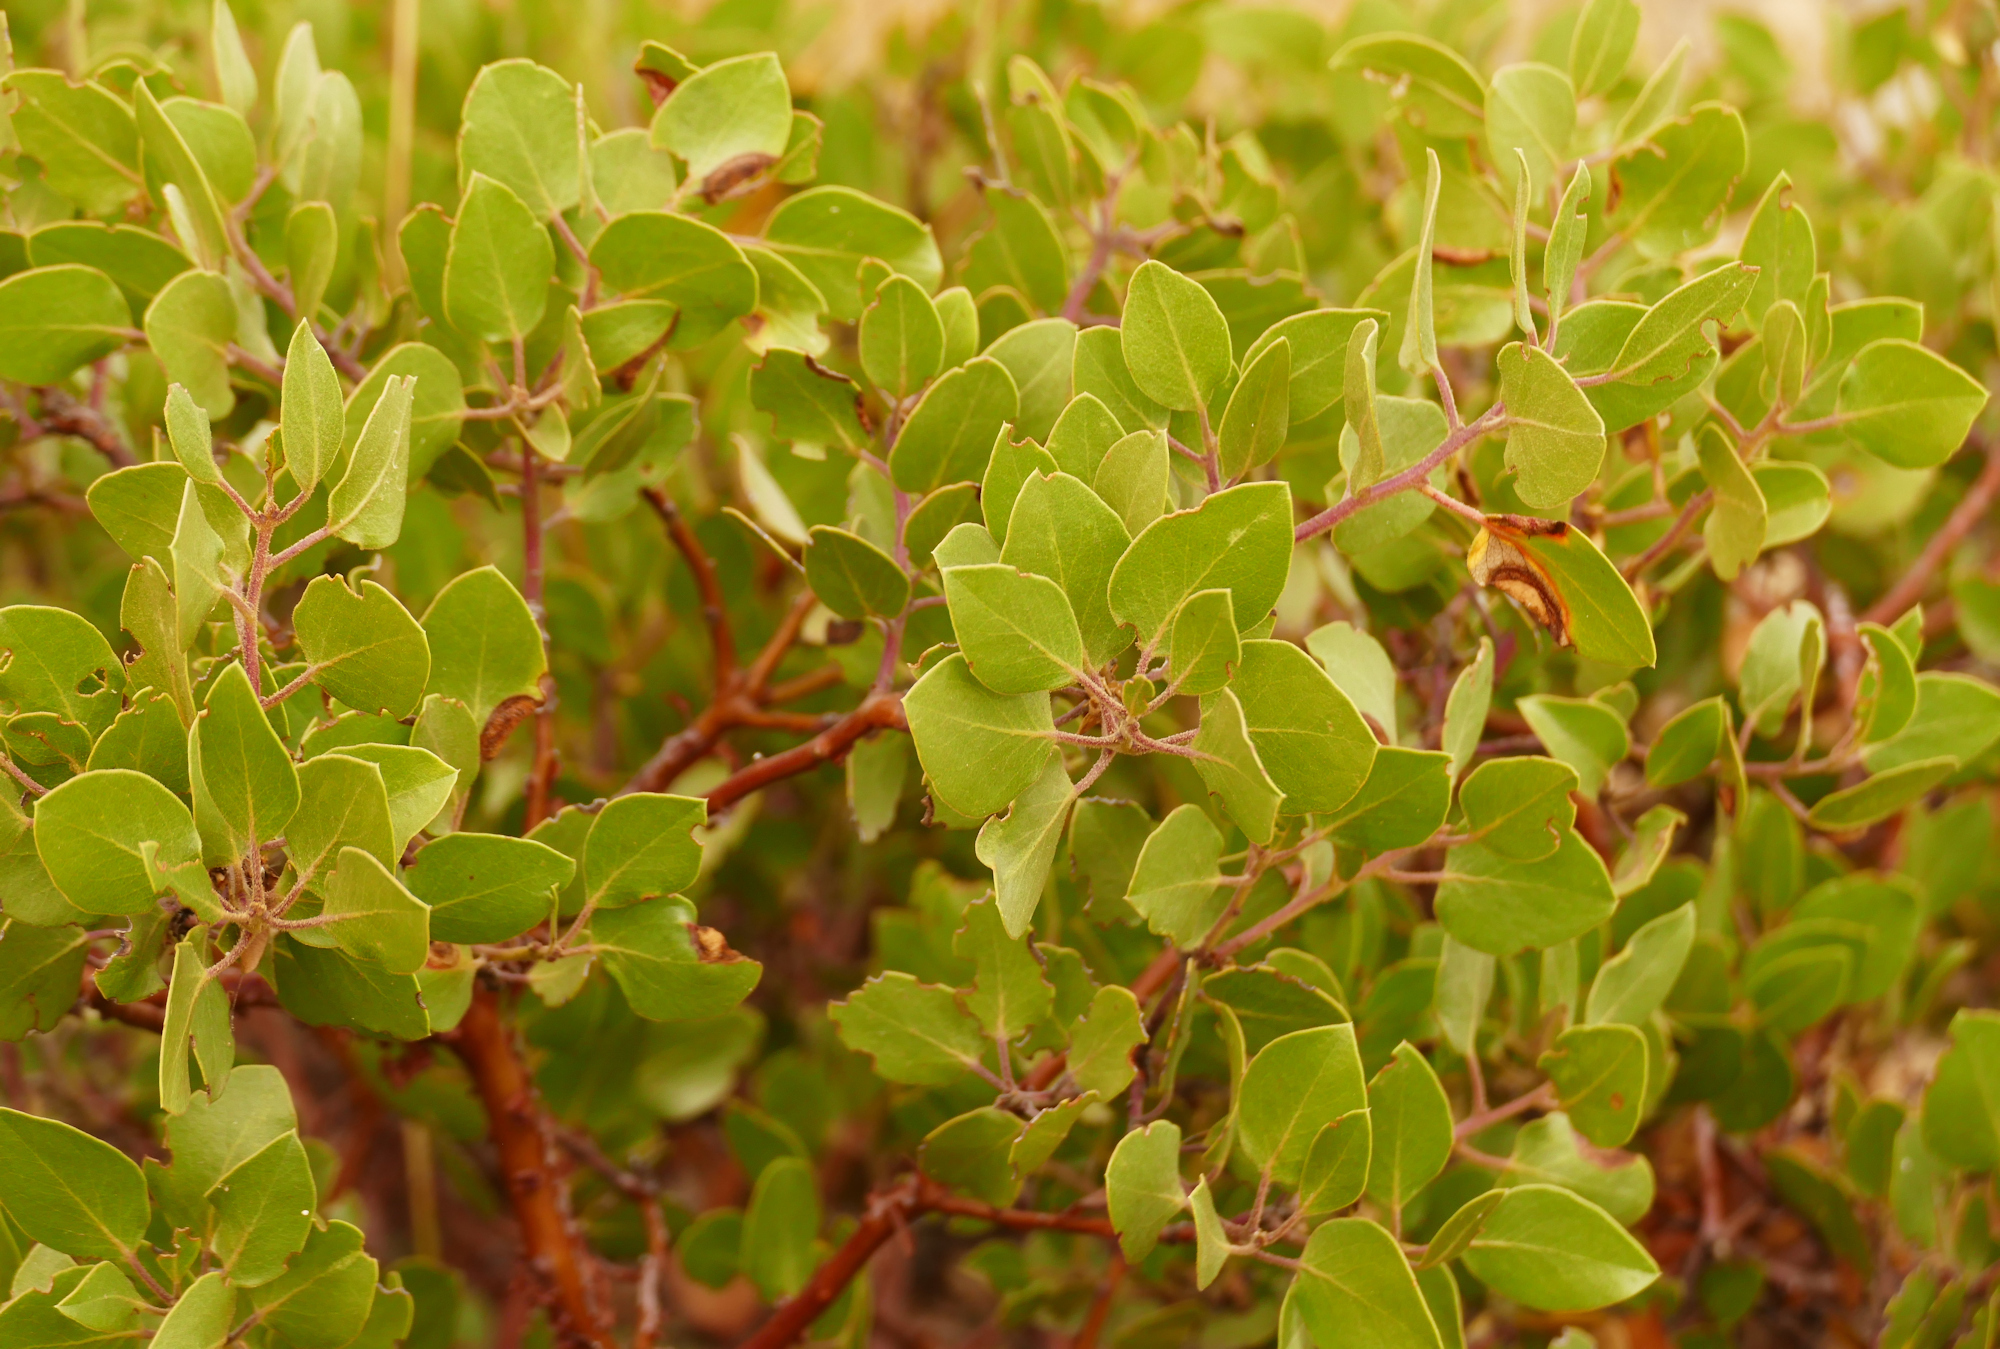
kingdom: Plantae
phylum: Tracheophyta
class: Magnoliopsida
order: Ericales
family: Ericaceae
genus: Arctostaphylos
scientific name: Arctostaphylos patula
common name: Green-leaf manzanita
